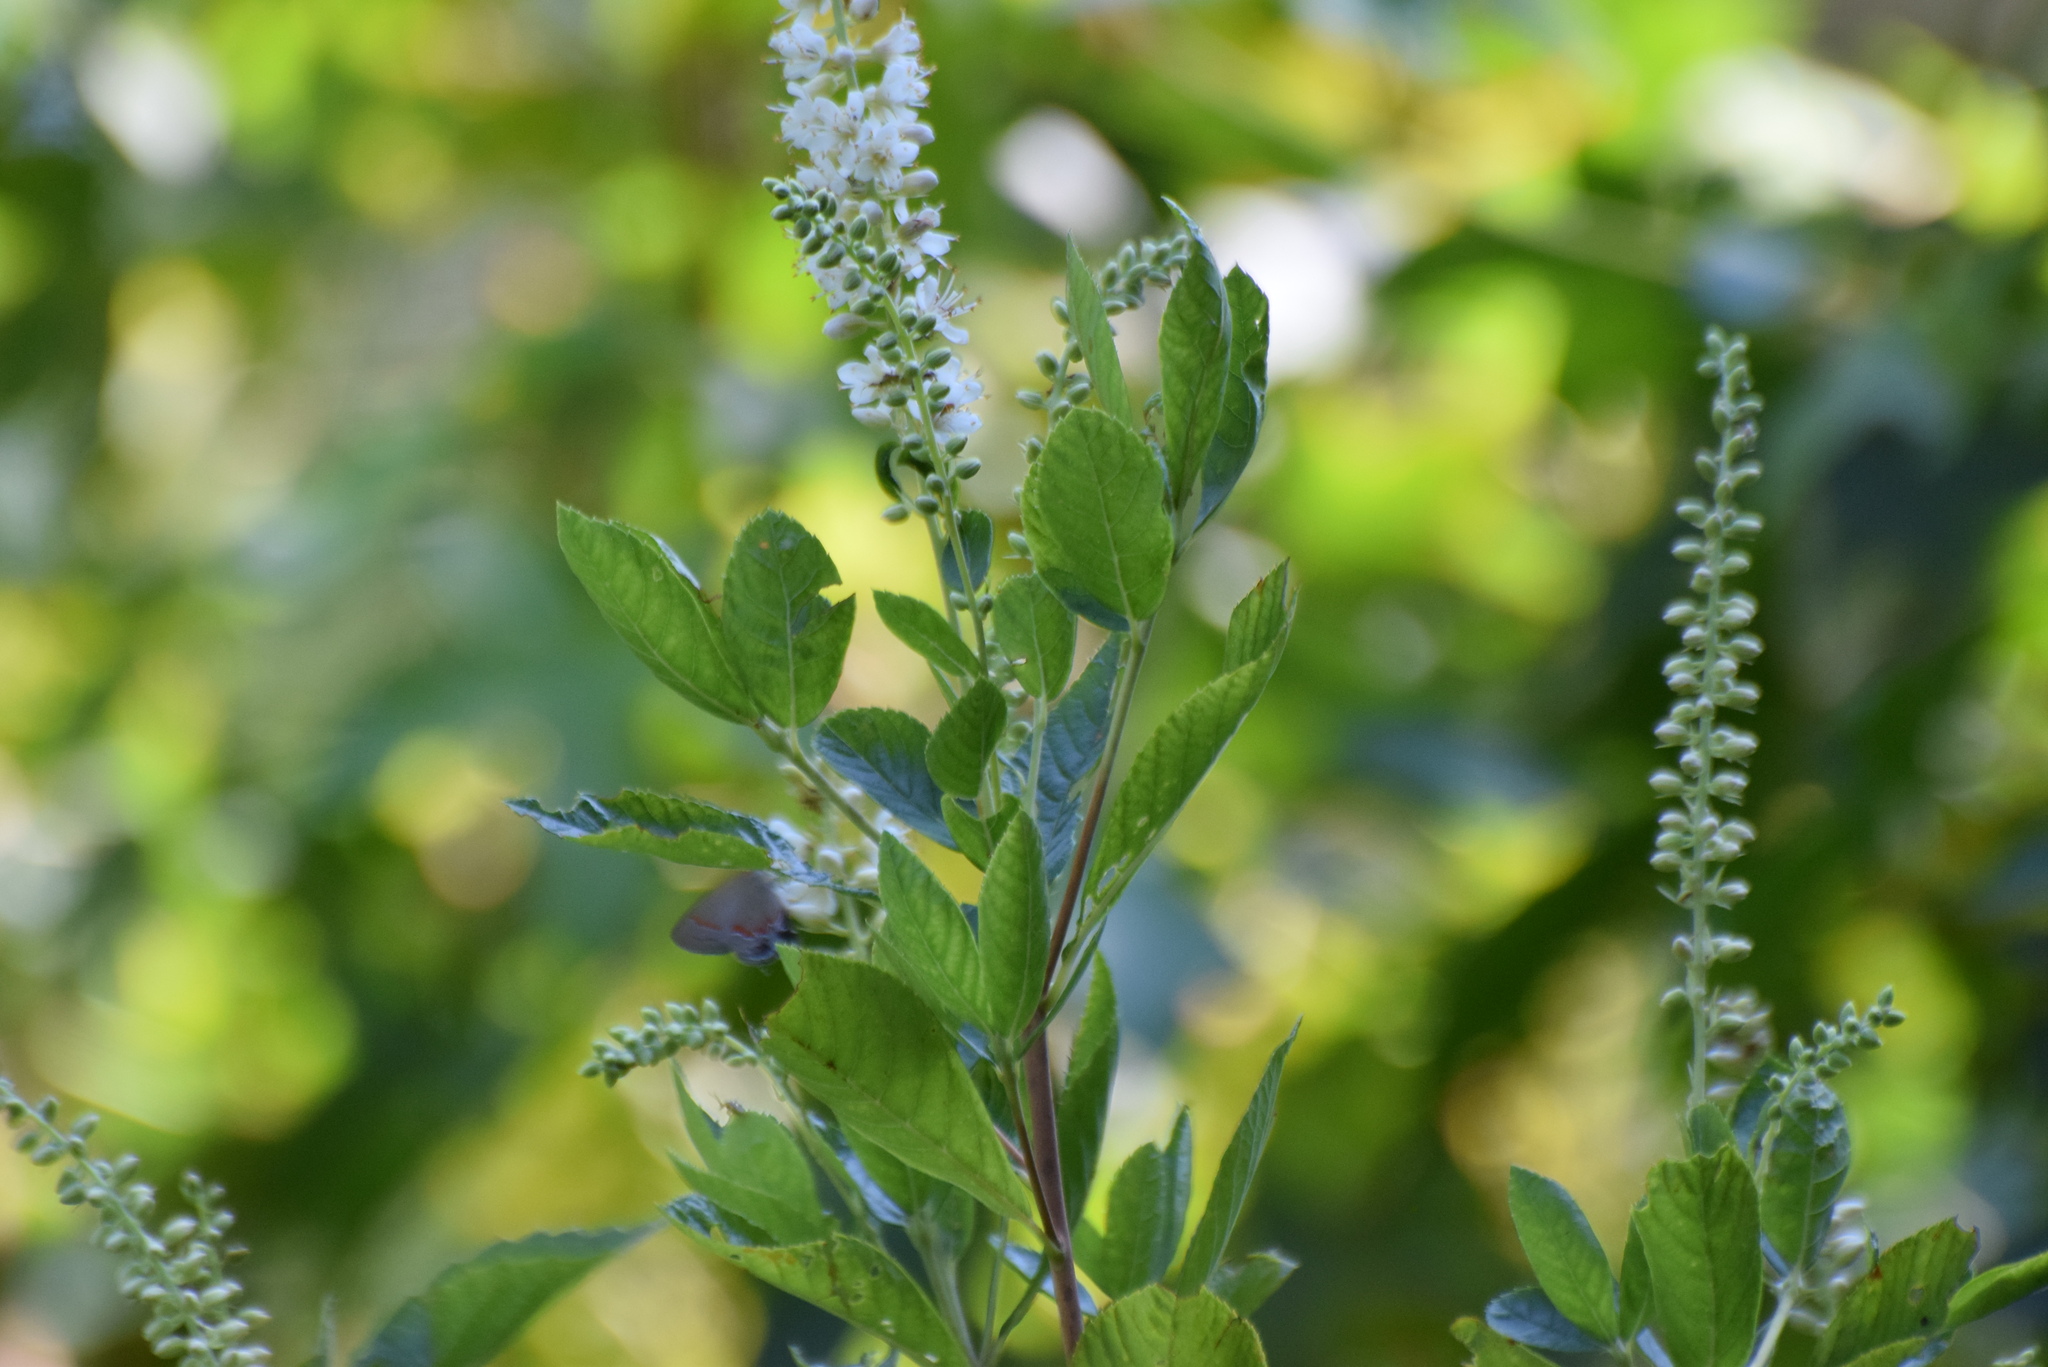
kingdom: Animalia
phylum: Arthropoda
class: Insecta
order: Lepidoptera
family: Lycaenidae
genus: Calycopis
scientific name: Calycopis cecrops
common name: Red-banded hairstreak
